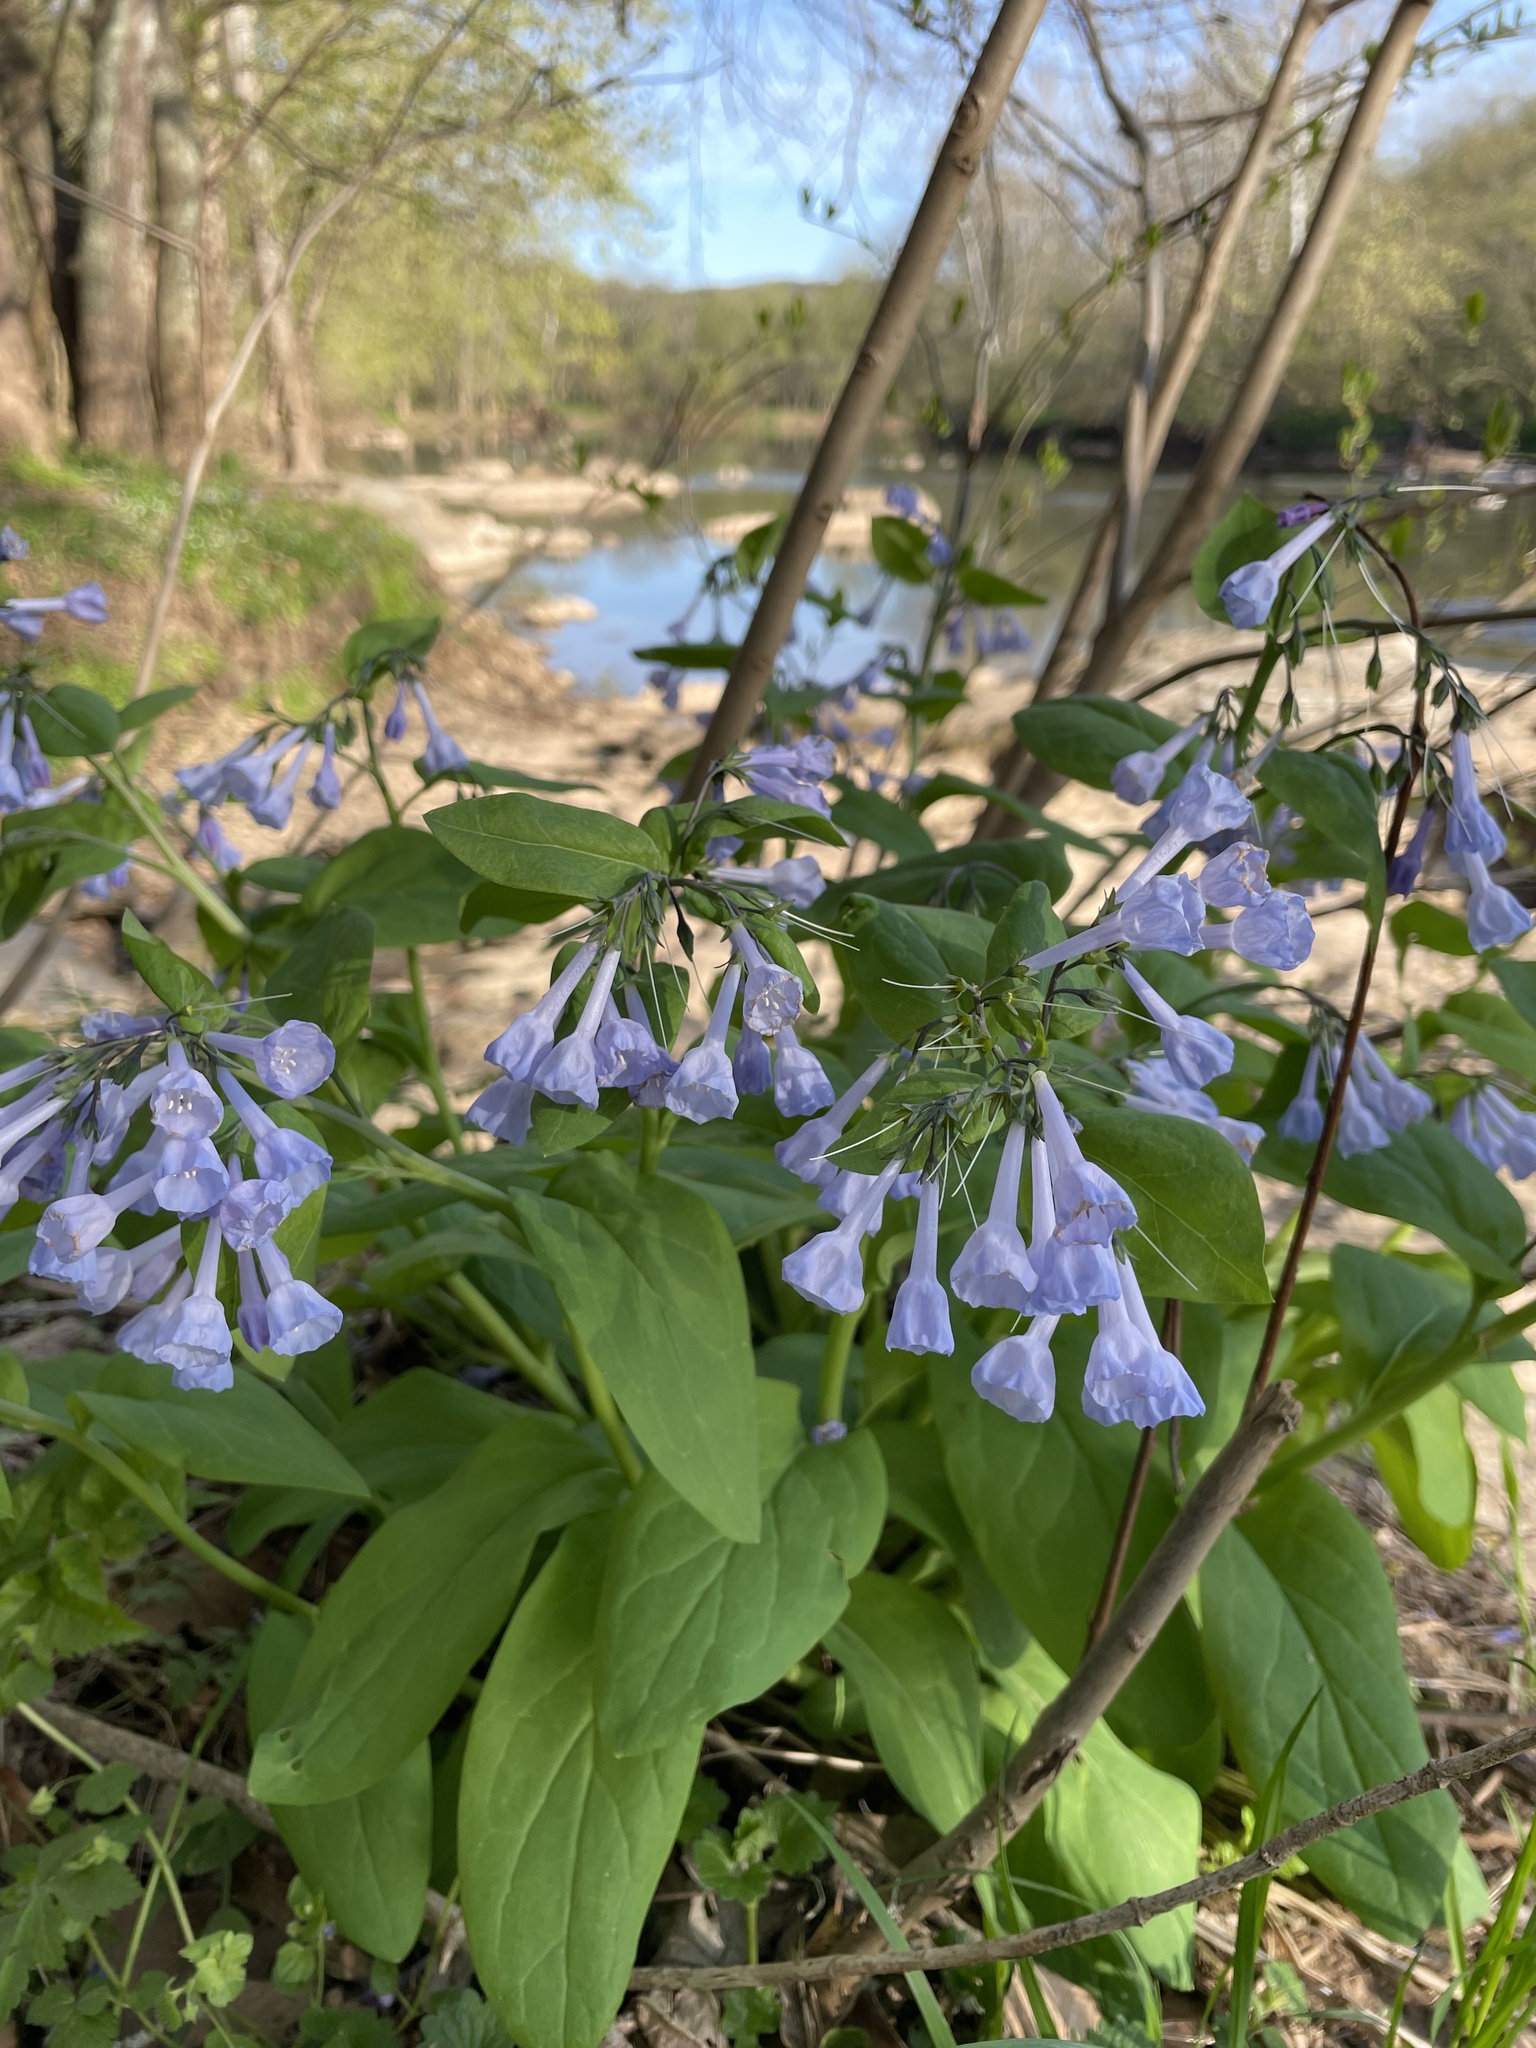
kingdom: Plantae
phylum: Tracheophyta
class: Magnoliopsida
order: Boraginales
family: Boraginaceae
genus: Mertensia
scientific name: Mertensia virginica
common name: Virginia bluebells
